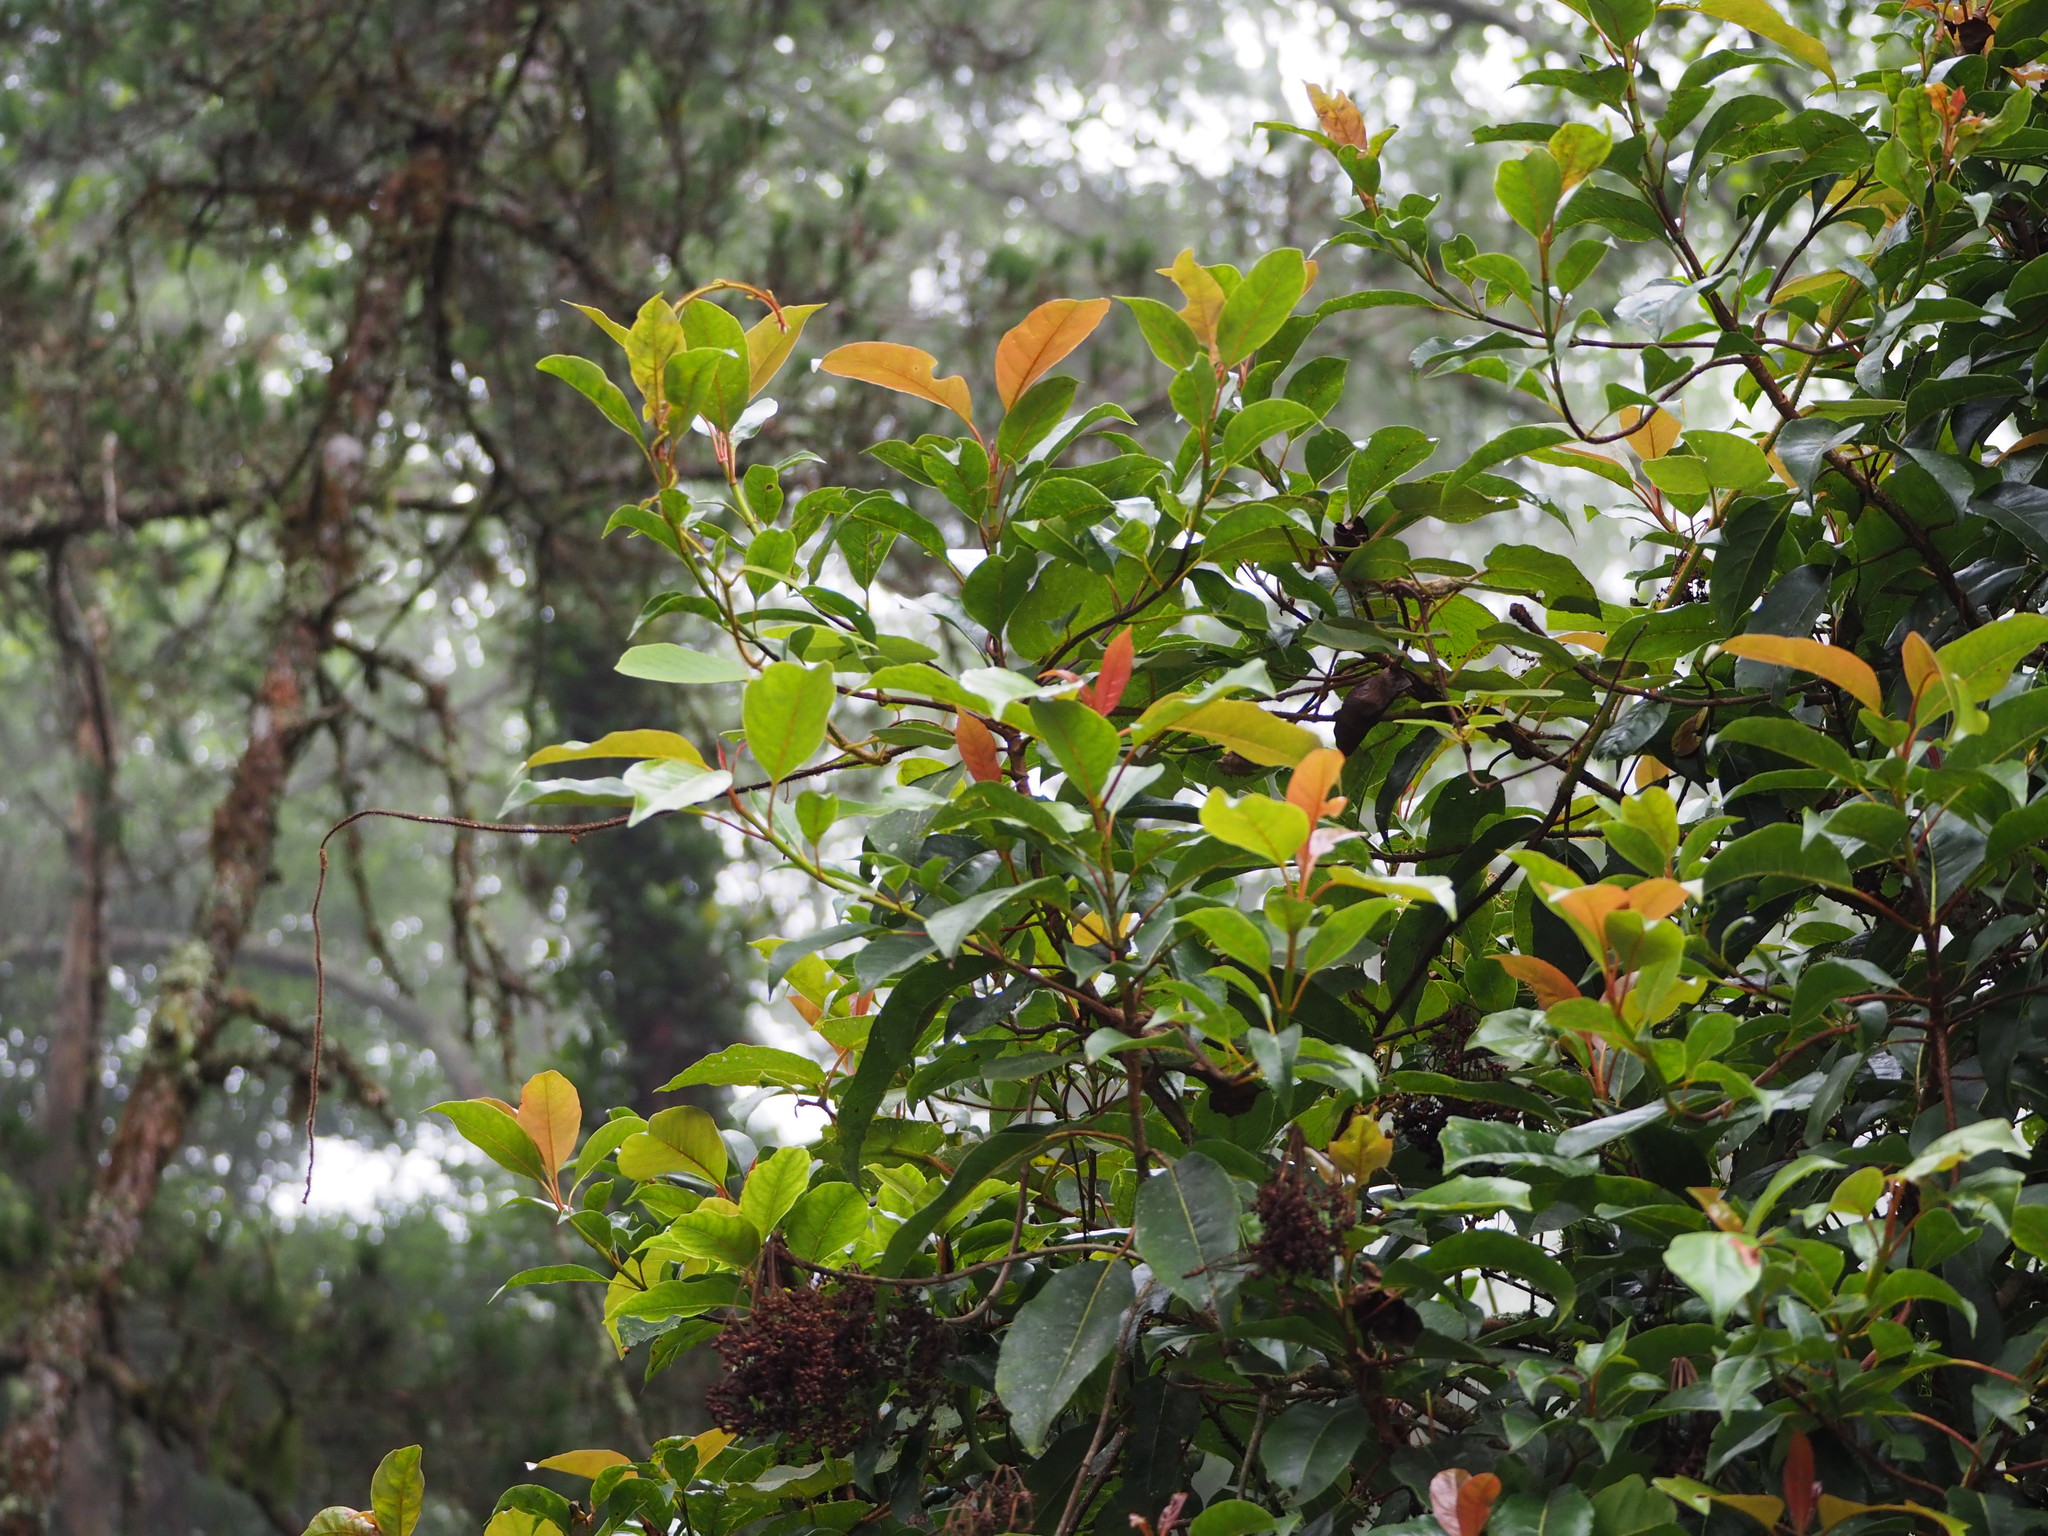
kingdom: Plantae
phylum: Tracheophyta
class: Magnoliopsida
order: Cornales
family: Hydrangeaceae
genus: Hydrangea
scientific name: Hydrangea integrifolia
